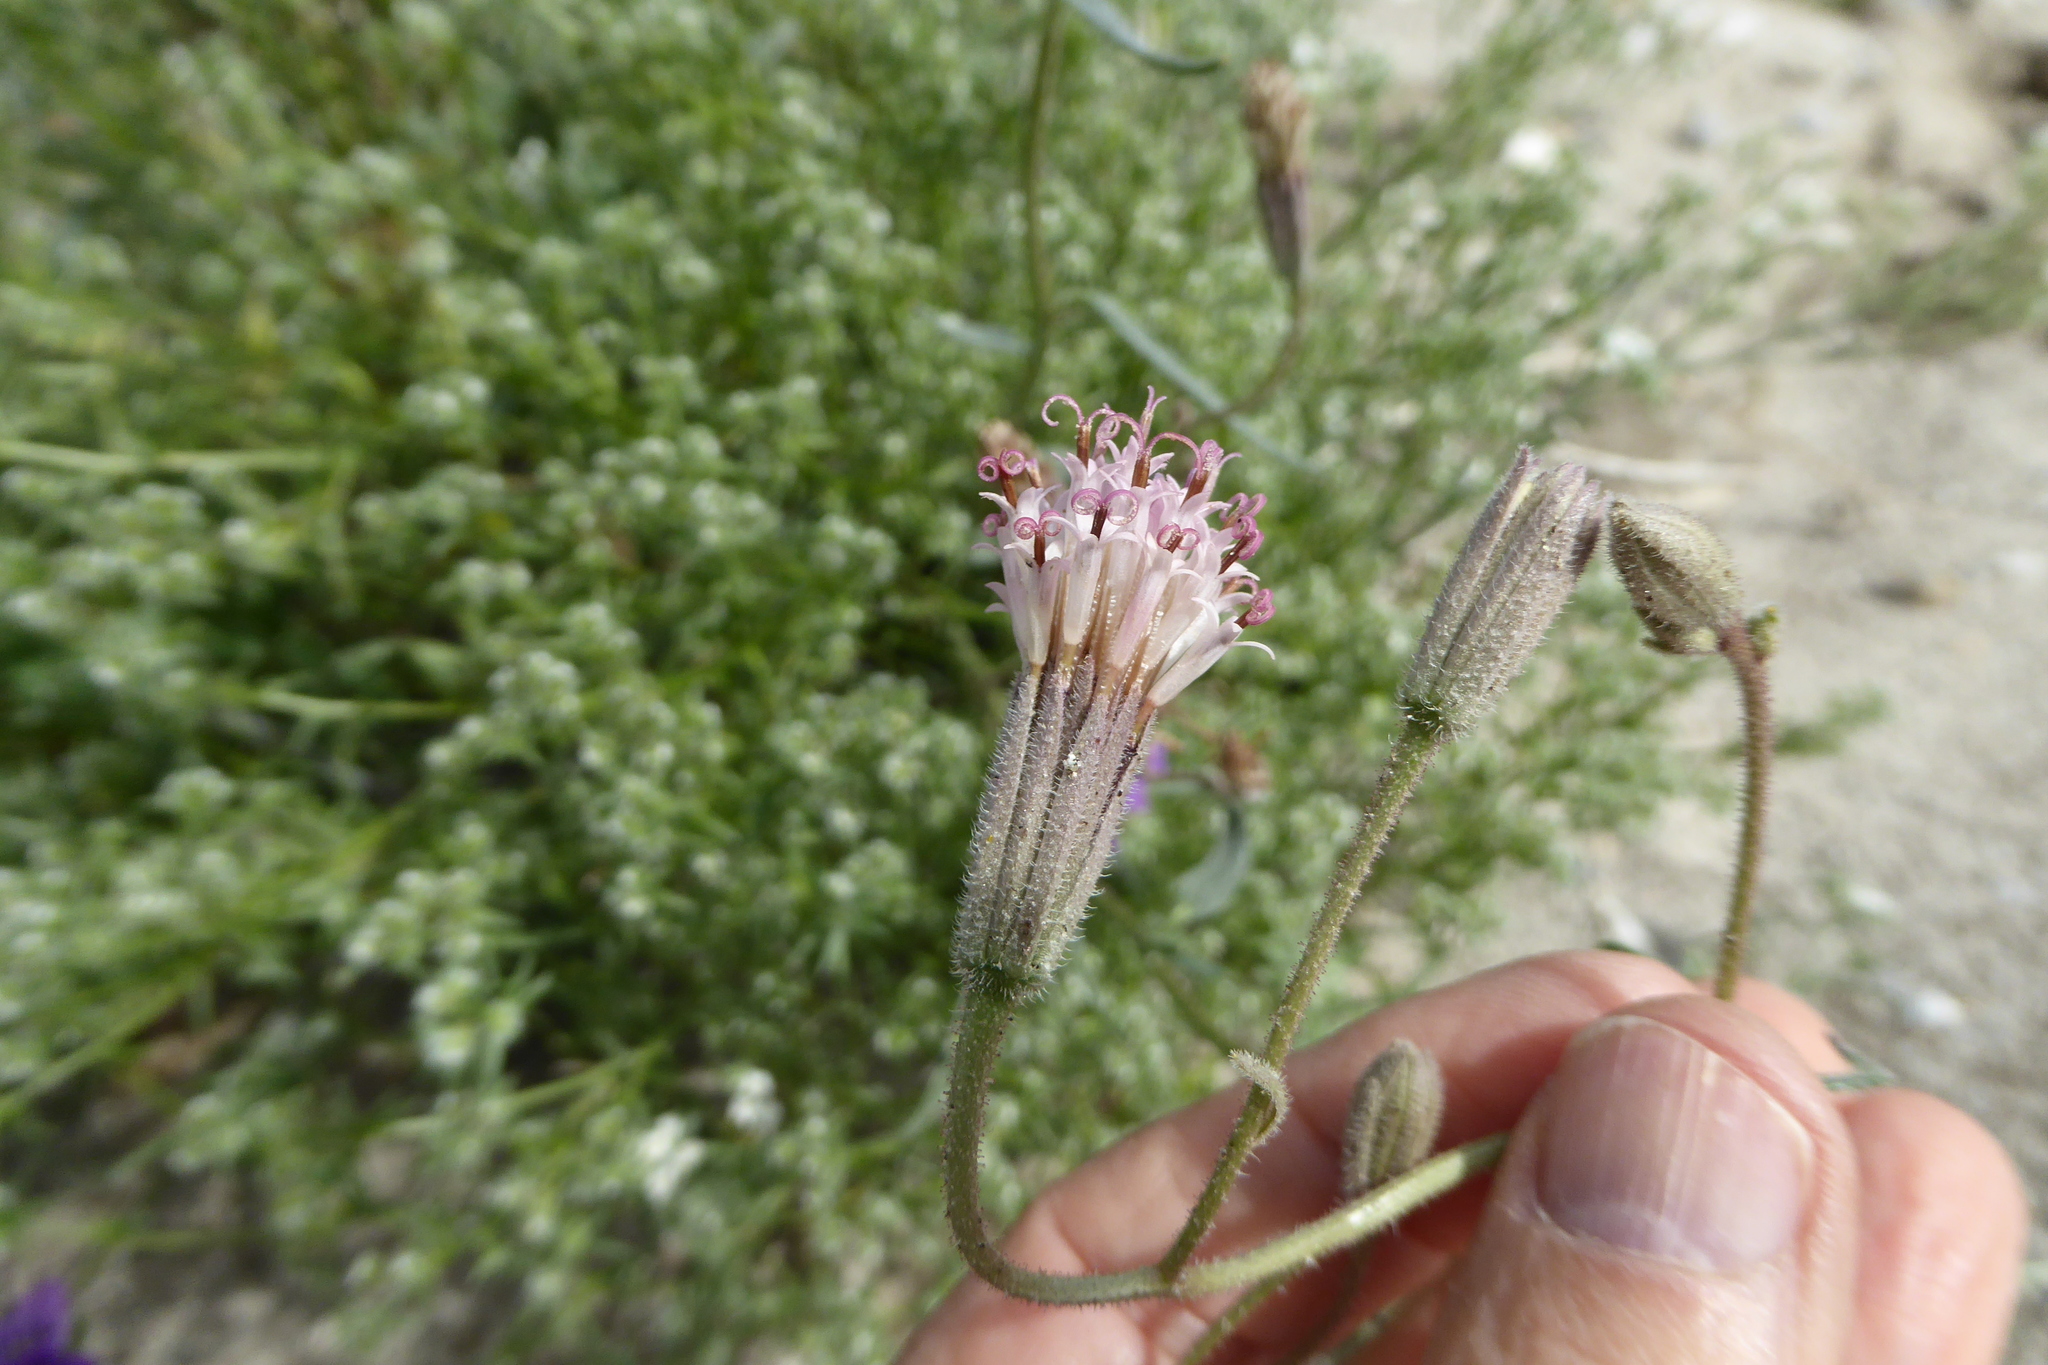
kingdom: Plantae
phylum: Tracheophyta
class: Magnoliopsida
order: Asterales
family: Asteraceae
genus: Palafoxia
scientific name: Palafoxia arida
